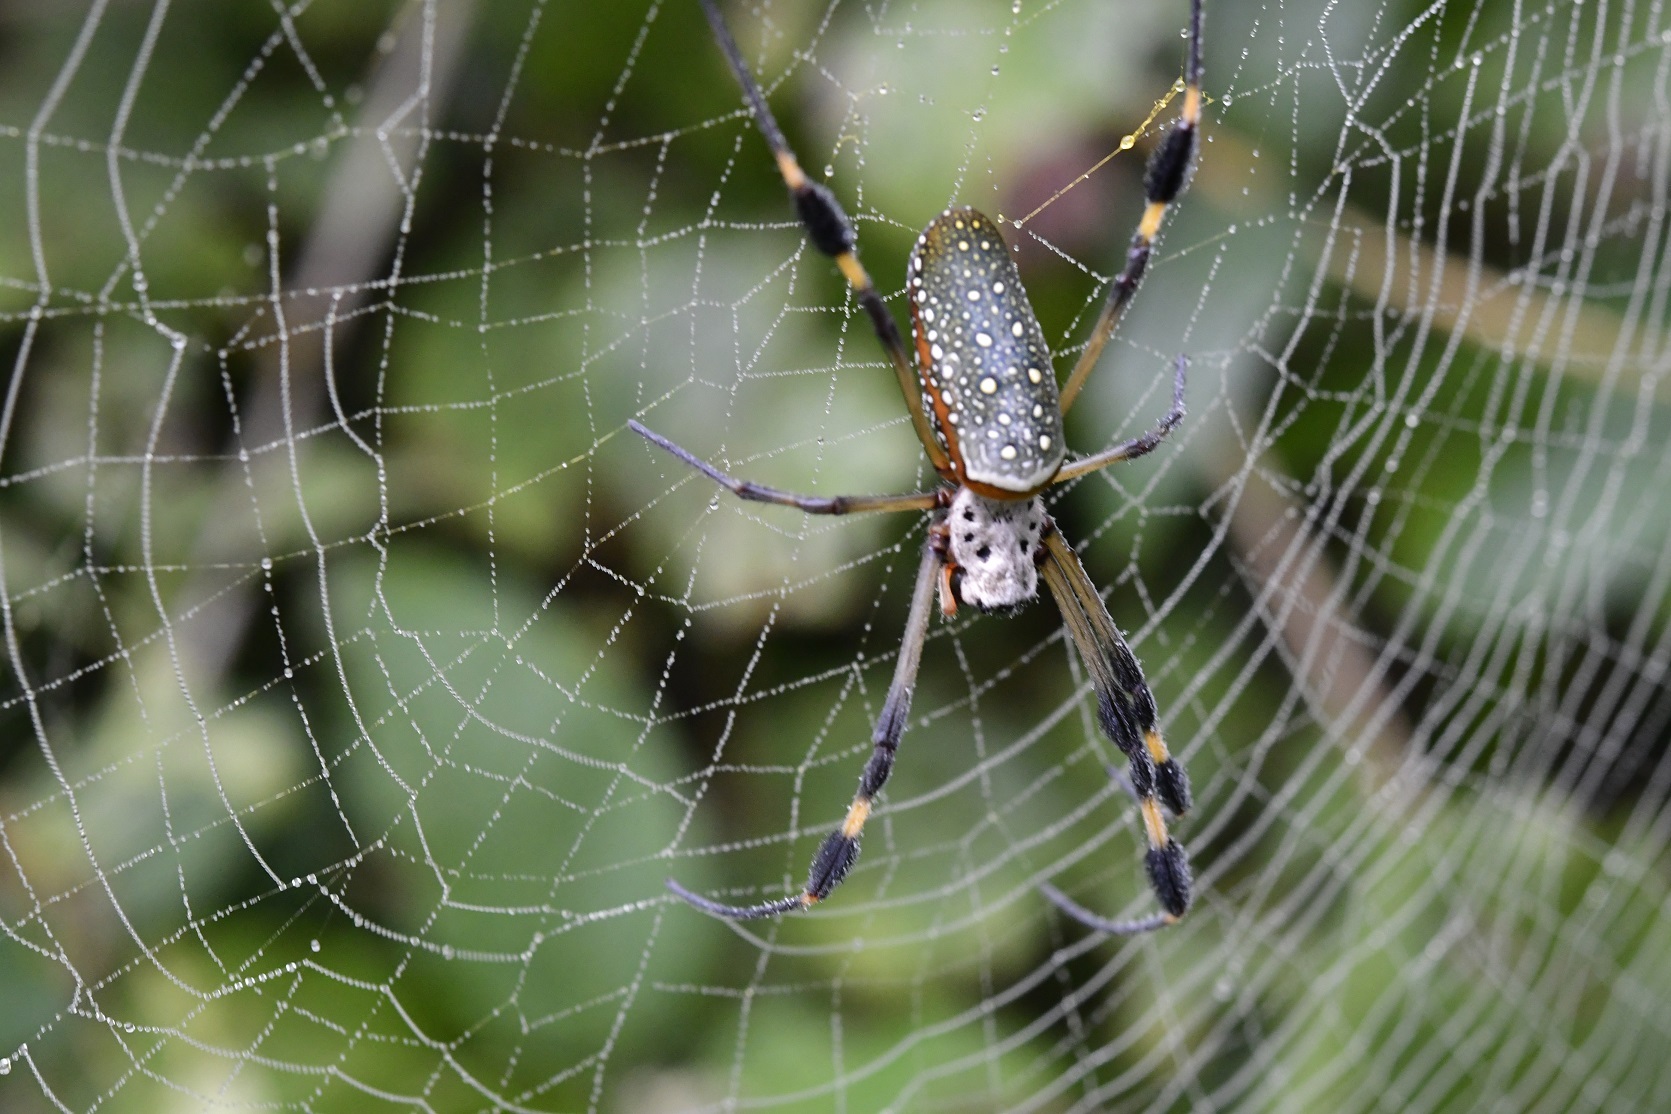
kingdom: Animalia
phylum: Arthropoda
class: Arachnida
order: Araneae
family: Araneidae
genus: Trichonephila
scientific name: Trichonephila clavipes
